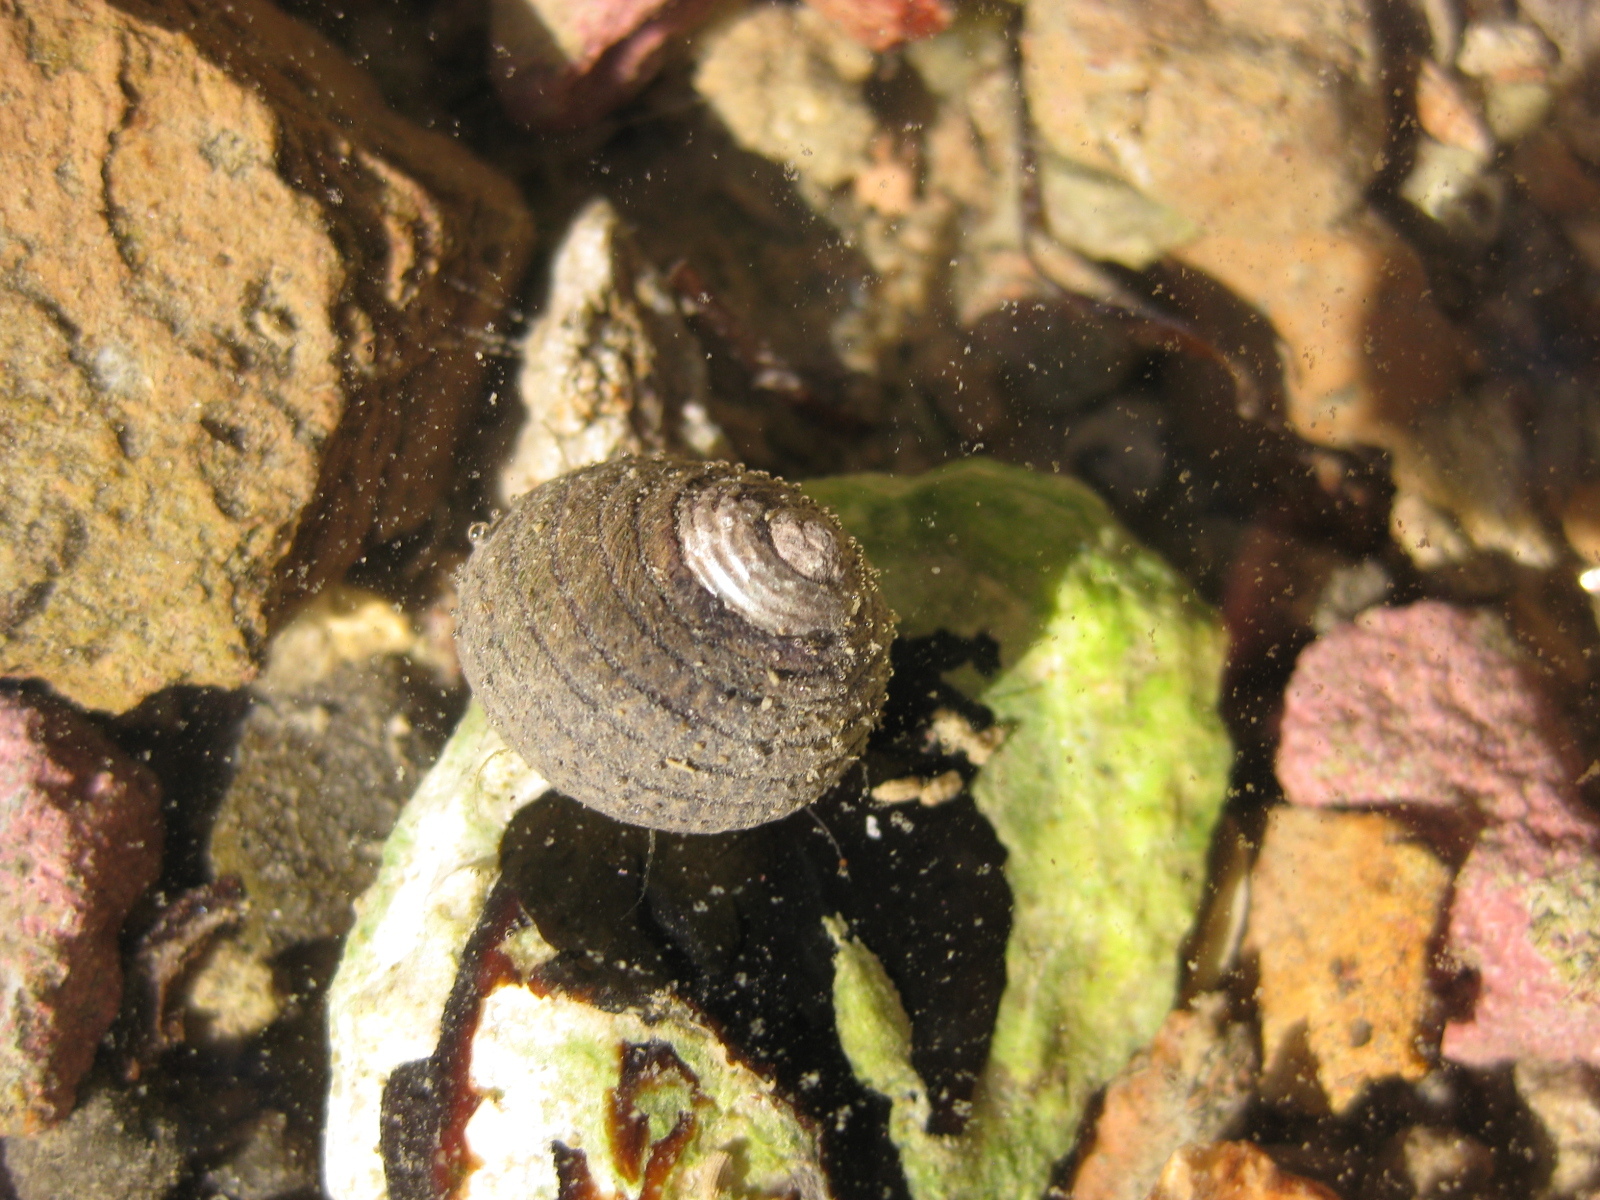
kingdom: Animalia
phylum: Mollusca
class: Gastropoda
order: Trochida
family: Trochidae
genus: Diloma
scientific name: Diloma aethiops
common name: Scorched monodont
